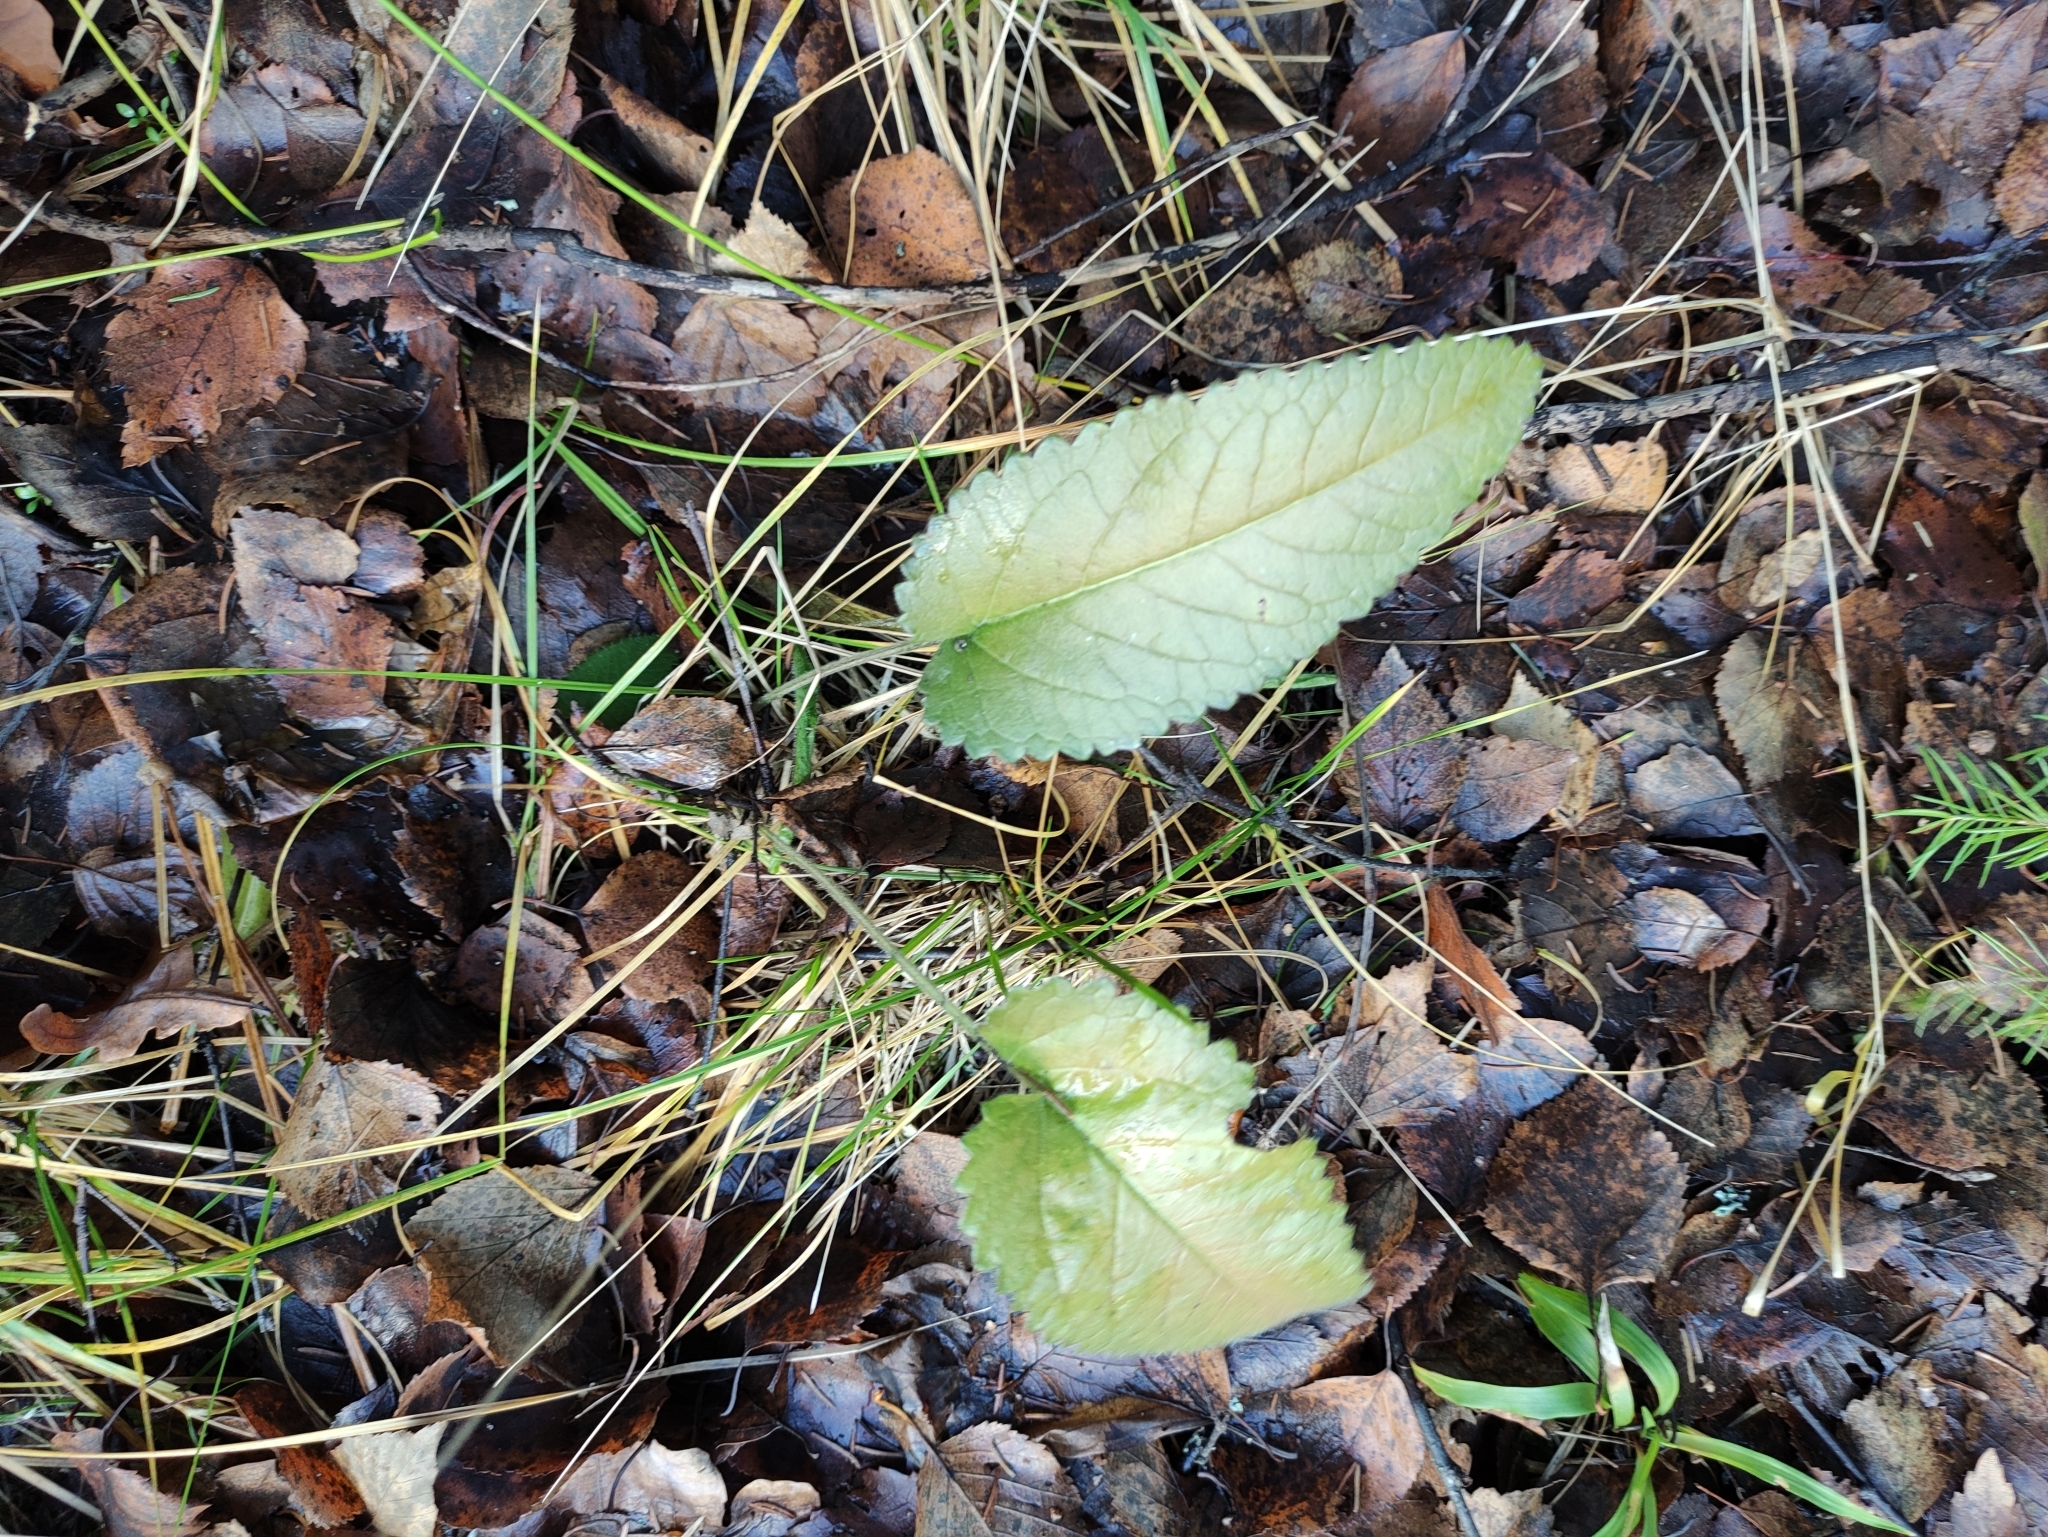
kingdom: Plantae
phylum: Tracheophyta
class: Magnoliopsida
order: Lamiales
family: Lamiaceae
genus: Betonica
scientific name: Betonica officinalis
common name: Bishop's-wort
